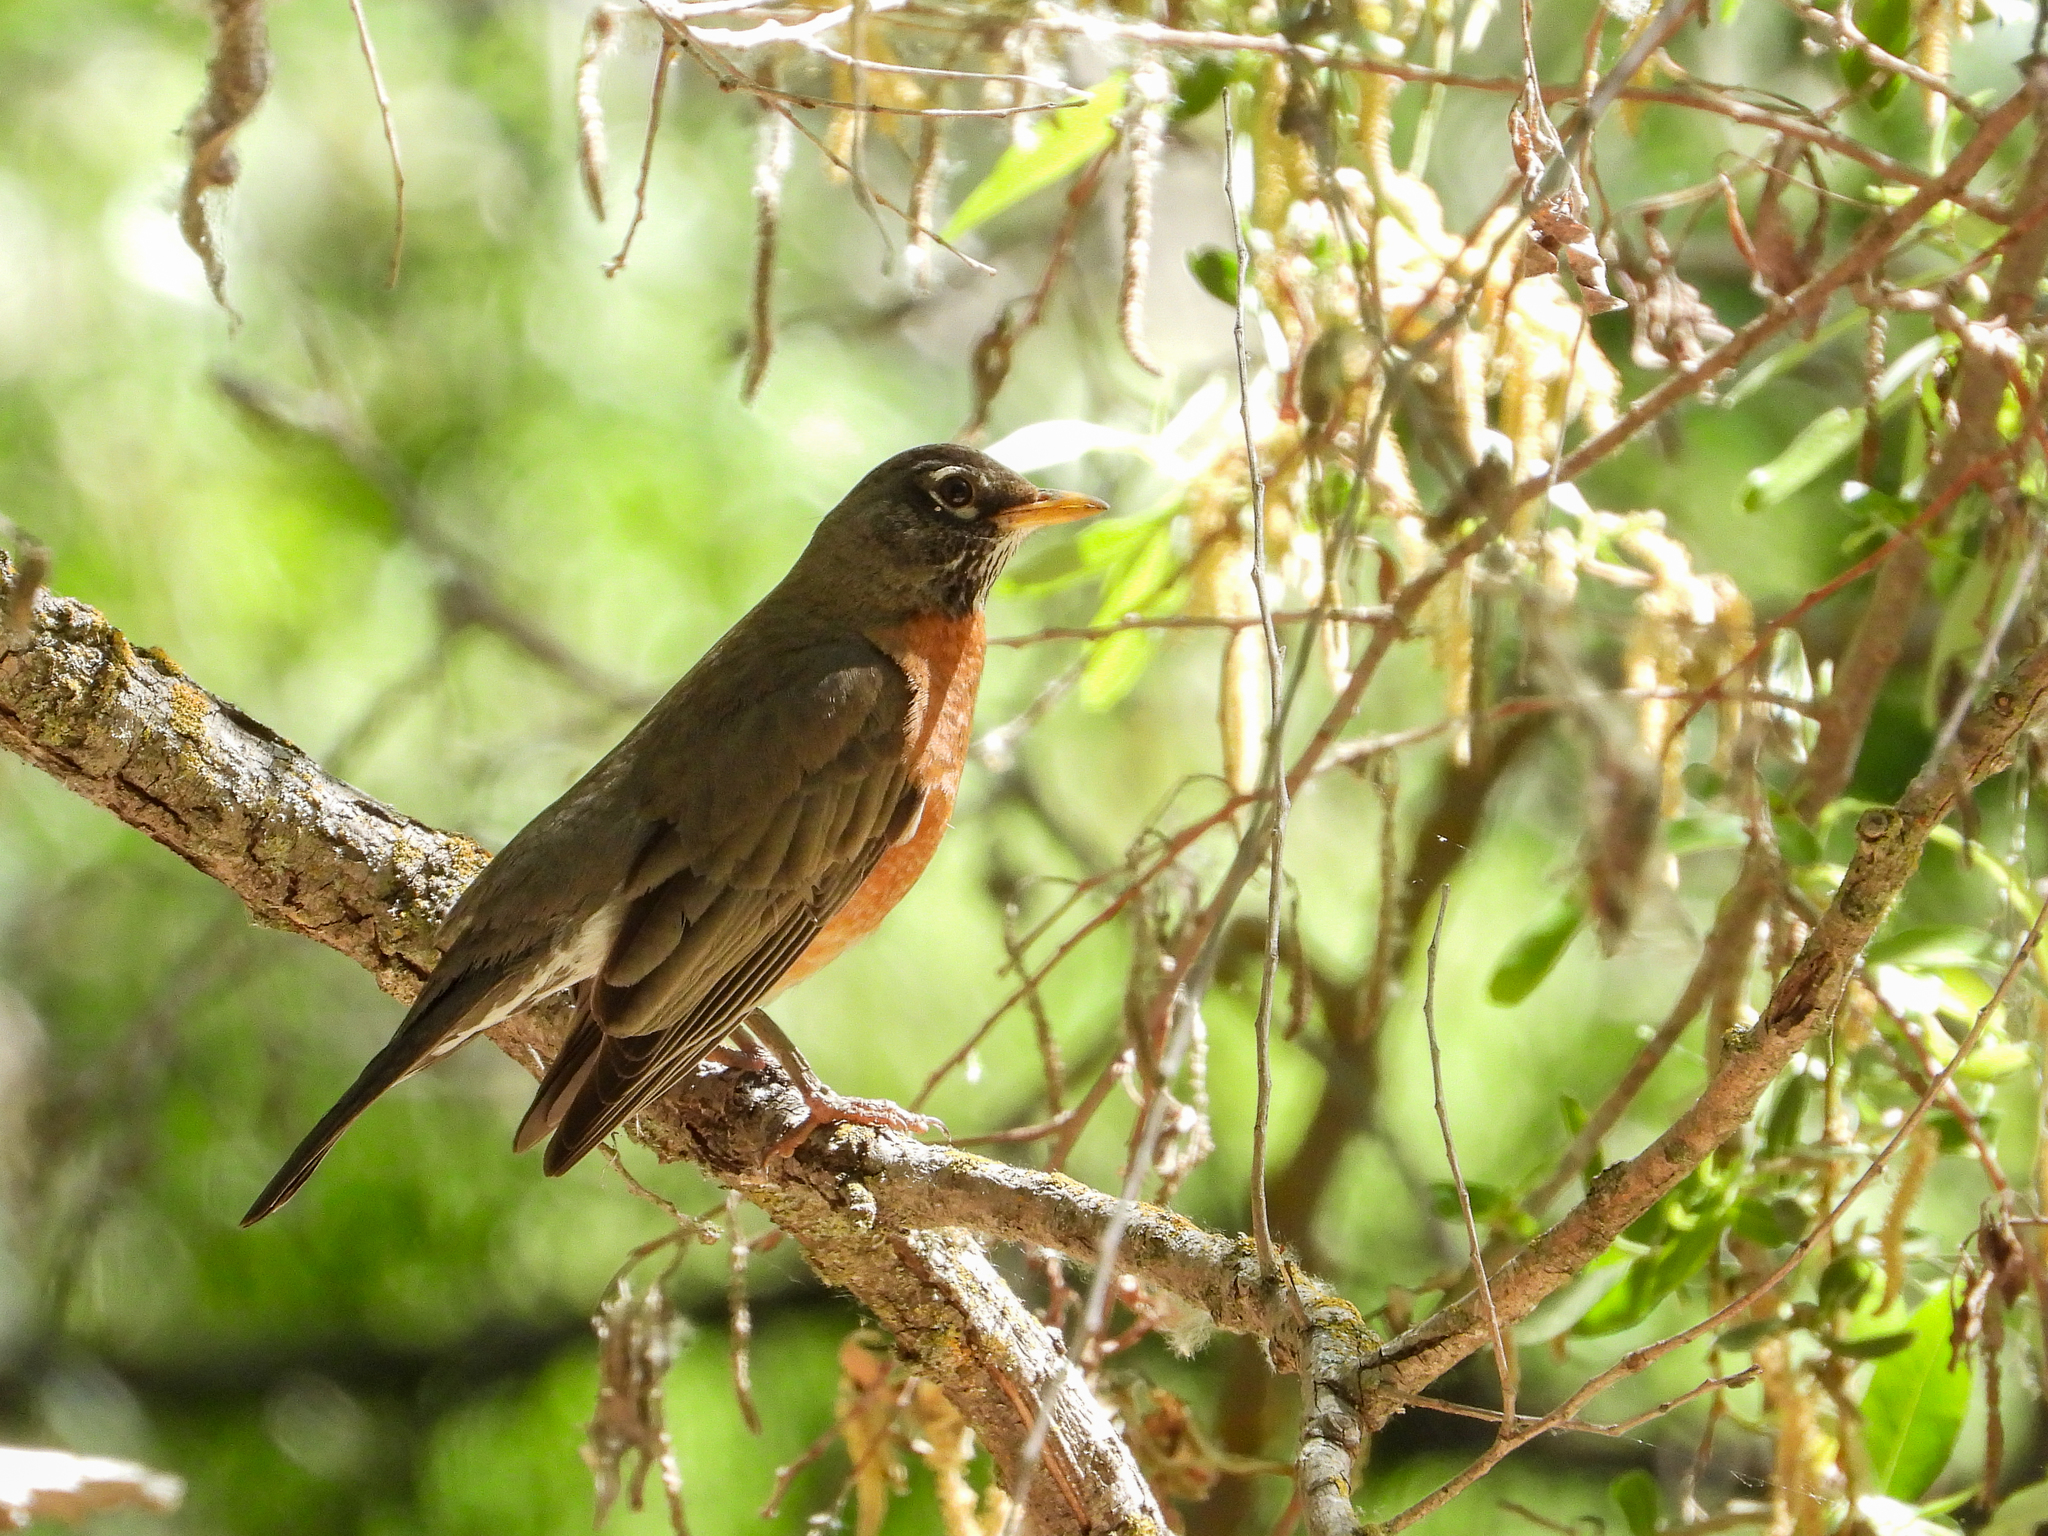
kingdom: Animalia
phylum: Chordata
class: Aves
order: Passeriformes
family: Turdidae
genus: Turdus
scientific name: Turdus migratorius
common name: American robin
